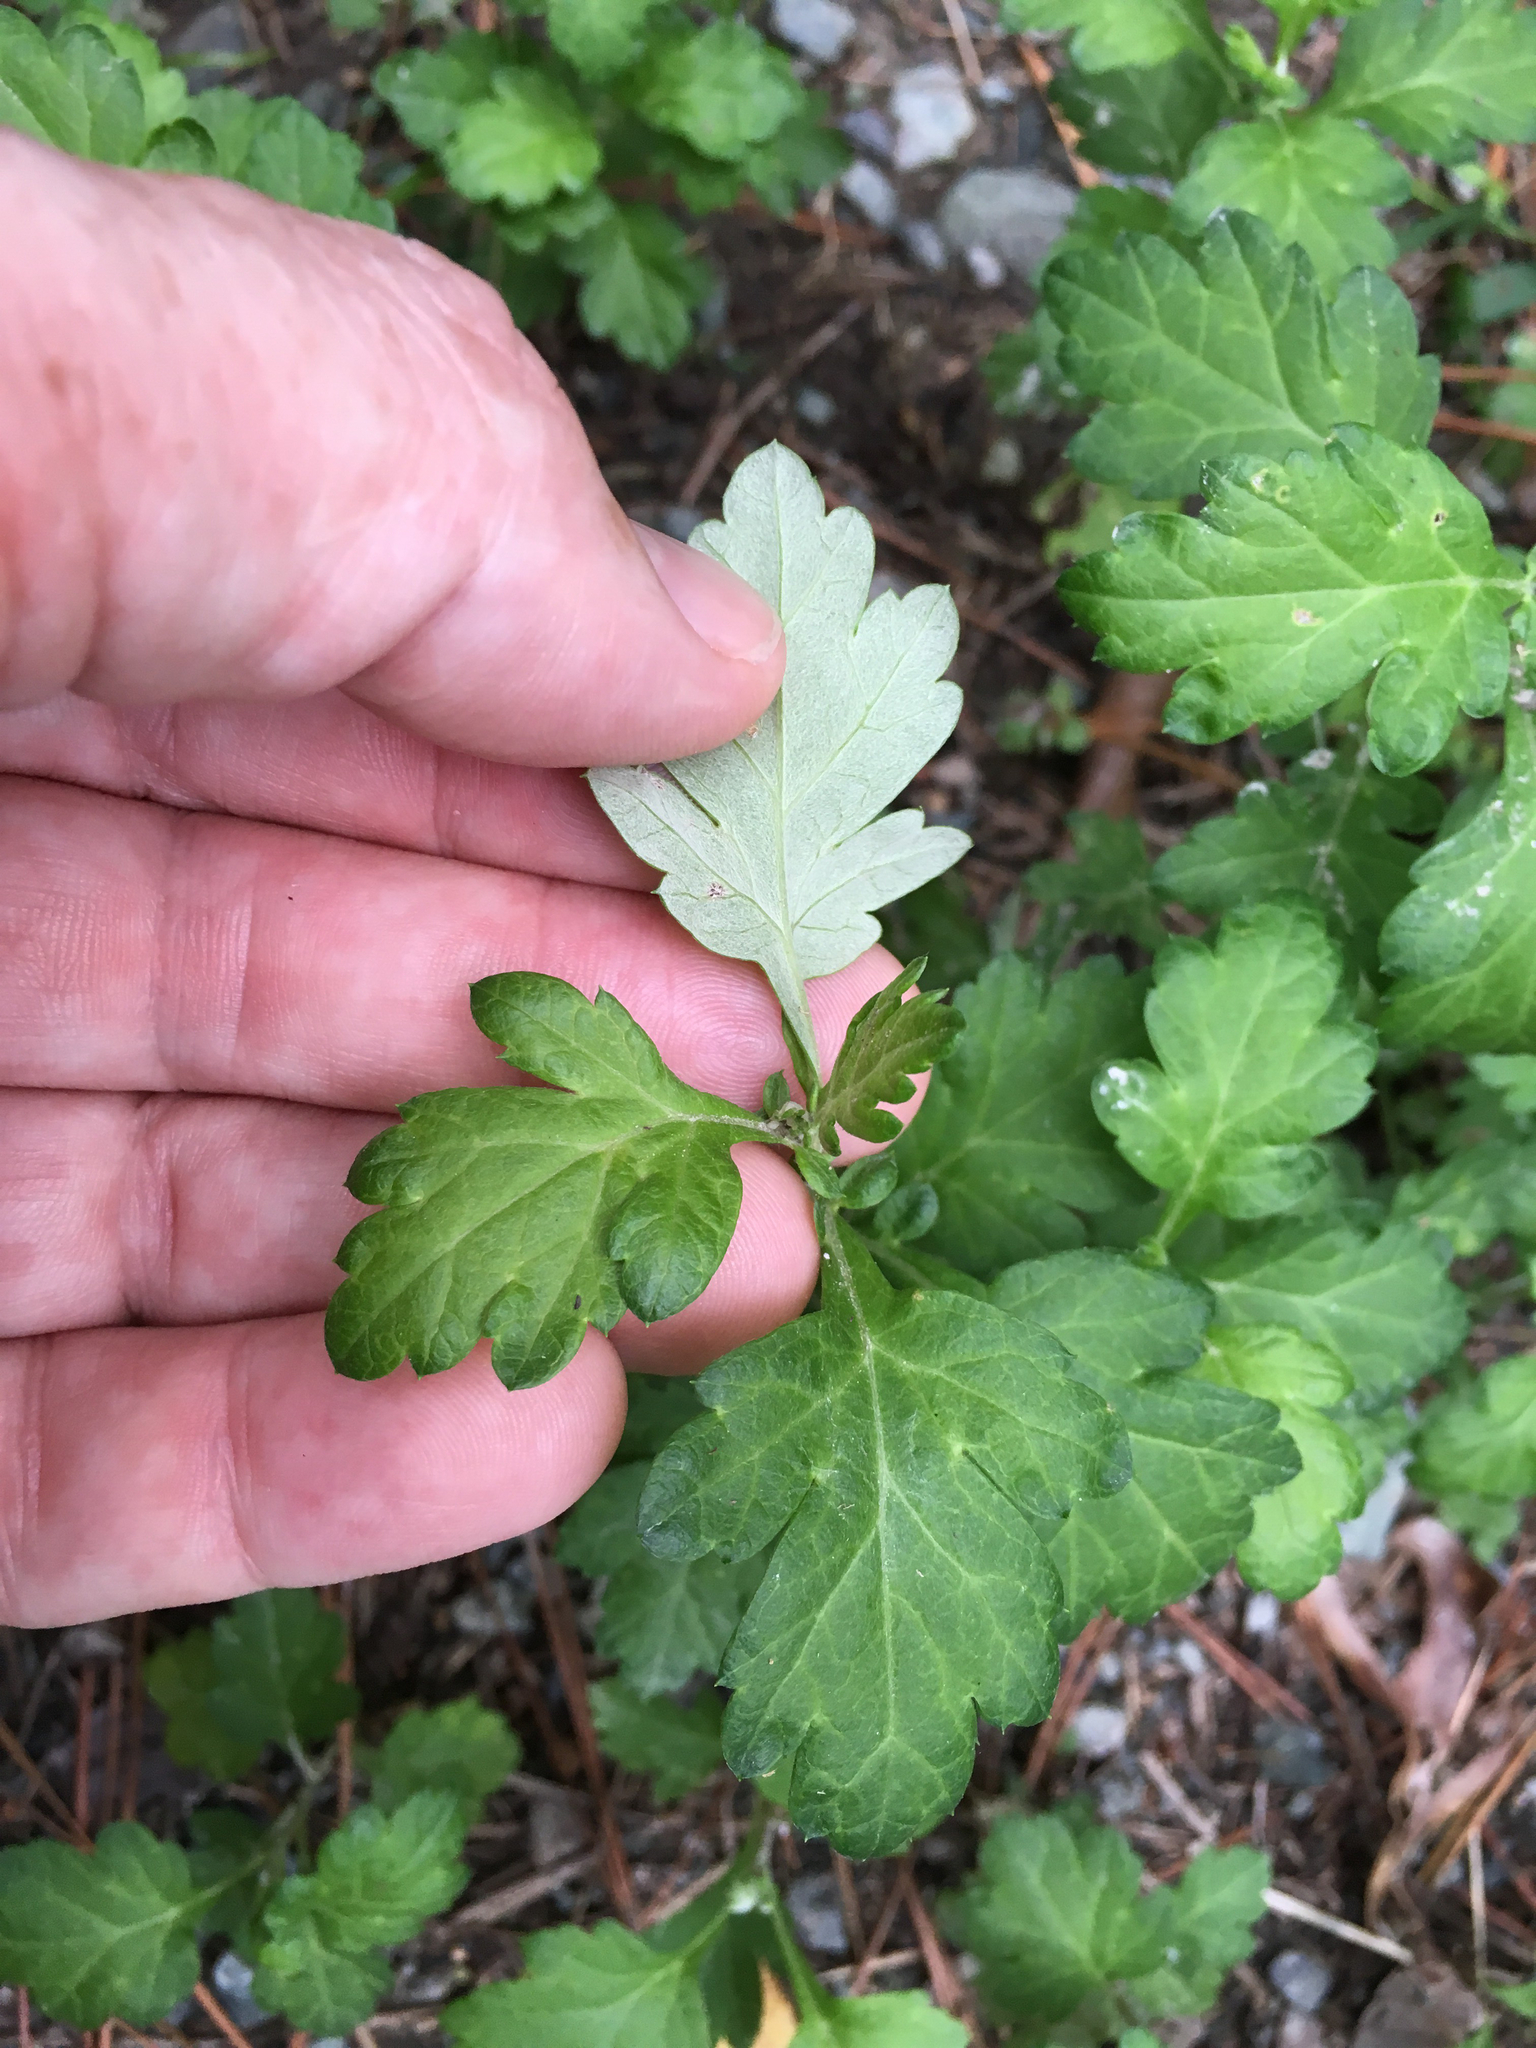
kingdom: Plantae
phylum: Tracheophyta
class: Magnoliopsida
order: Asterales
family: Asteraceae
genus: Artemisia
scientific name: Artemisia vulgaris
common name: Mugwort
